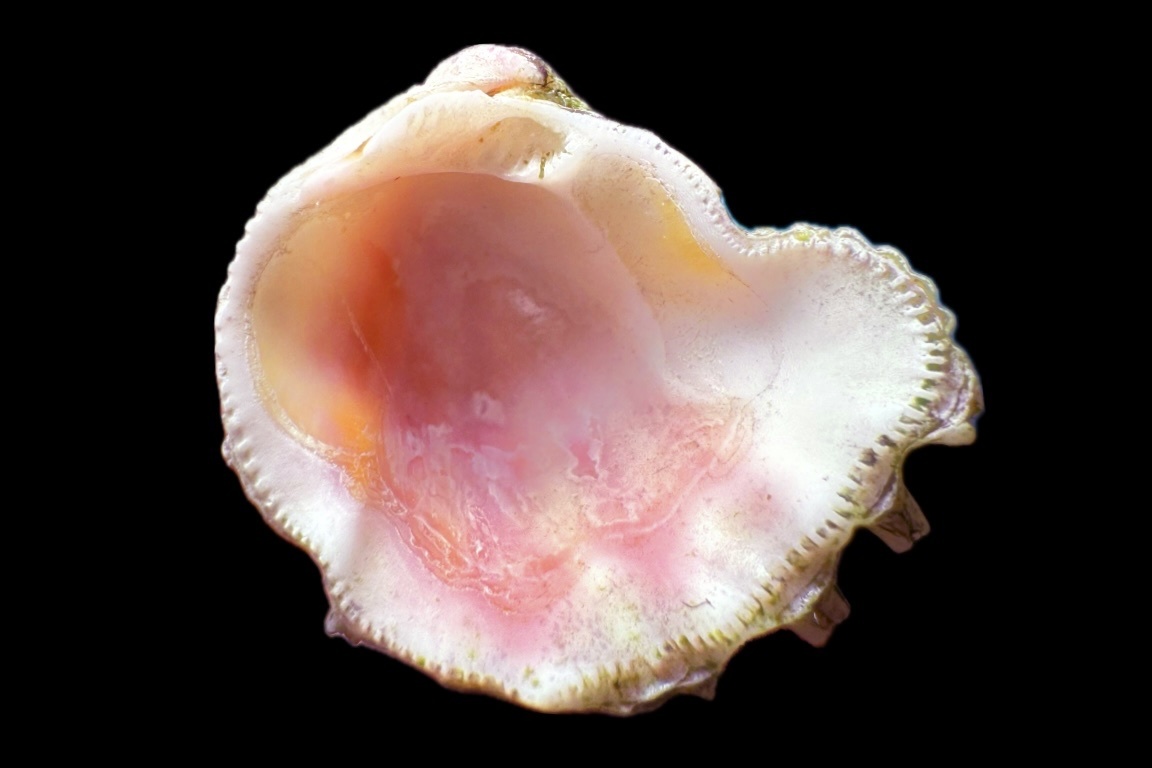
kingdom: Animalia
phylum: Mollusca
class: Bivalvia
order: Venerida
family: Chamidae
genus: Arcinella
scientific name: Arcinella cornuta
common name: Florida spiny jewel box
